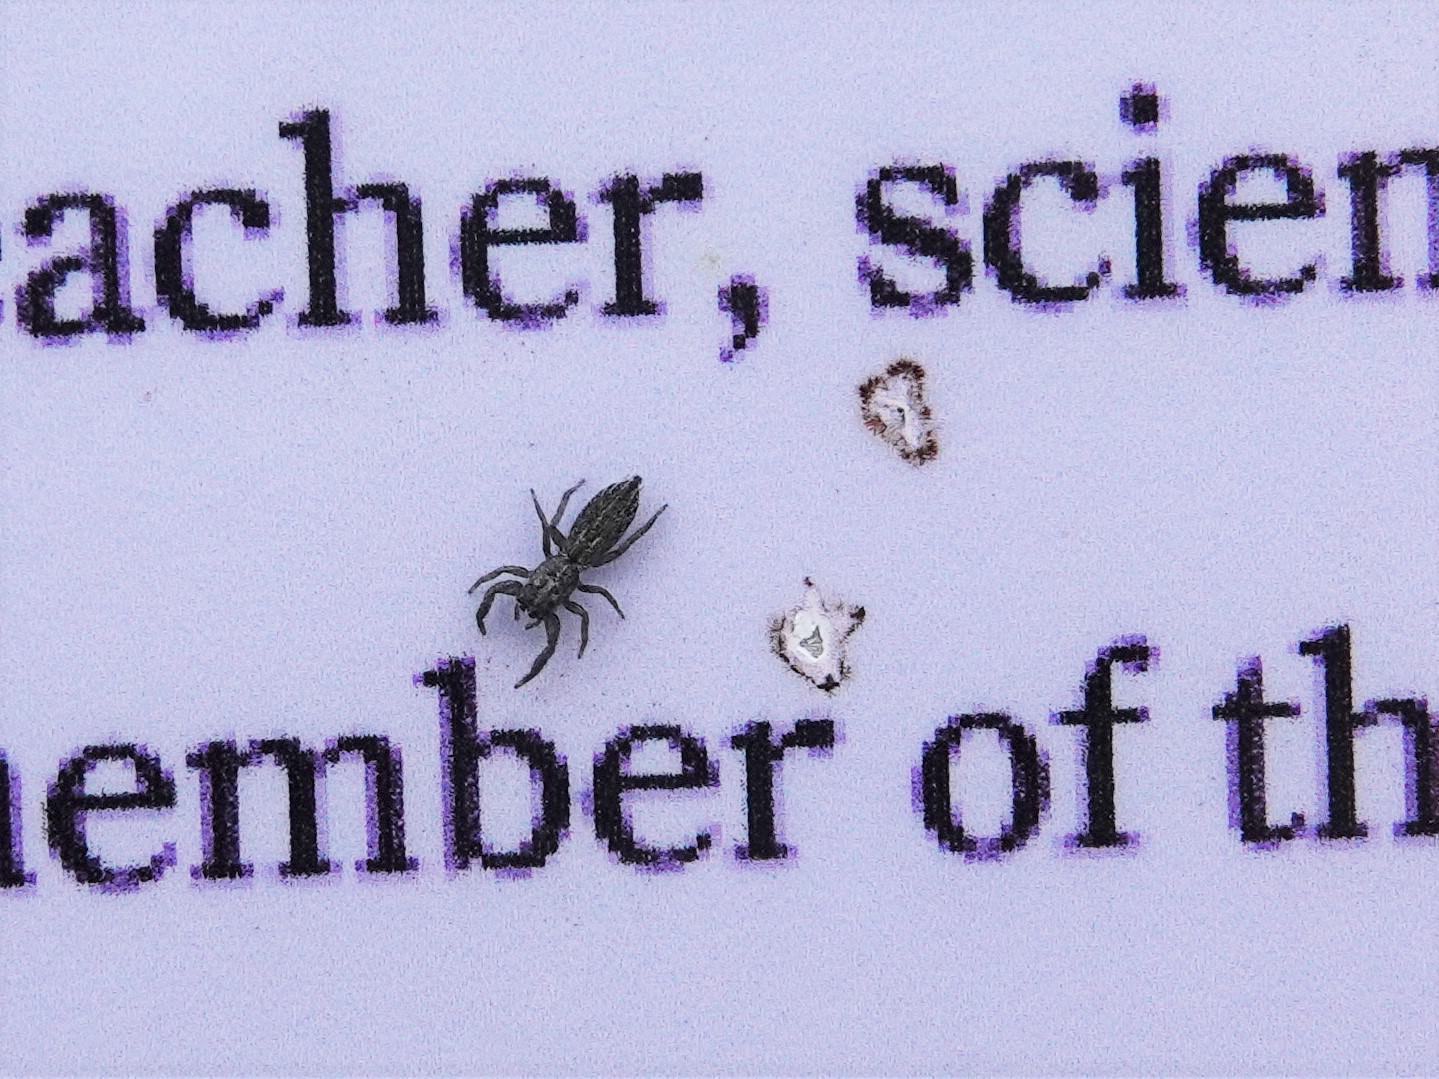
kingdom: Animalia
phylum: Arthropoda
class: Arachnida
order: Araneae
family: Salticidae
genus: Holoplatys
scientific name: Holoplatys apressus
